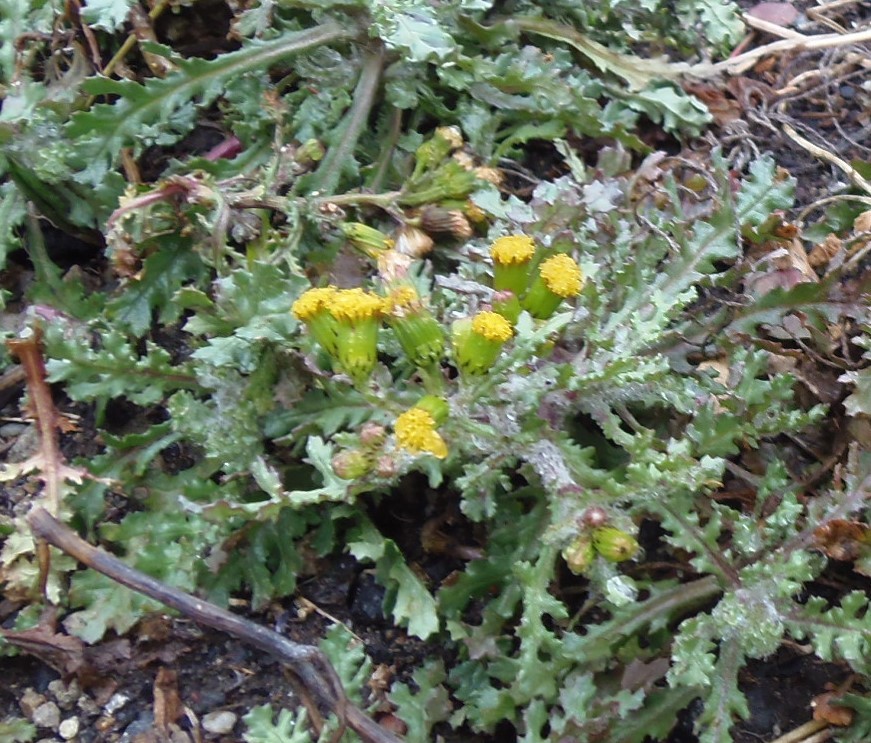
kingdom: Plantae
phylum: Tracheophyta
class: Magnoliopsida
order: Asterales
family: Asteraceae
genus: Senecio
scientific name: Senecio vulgaris
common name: Old-man-in-the-spring
